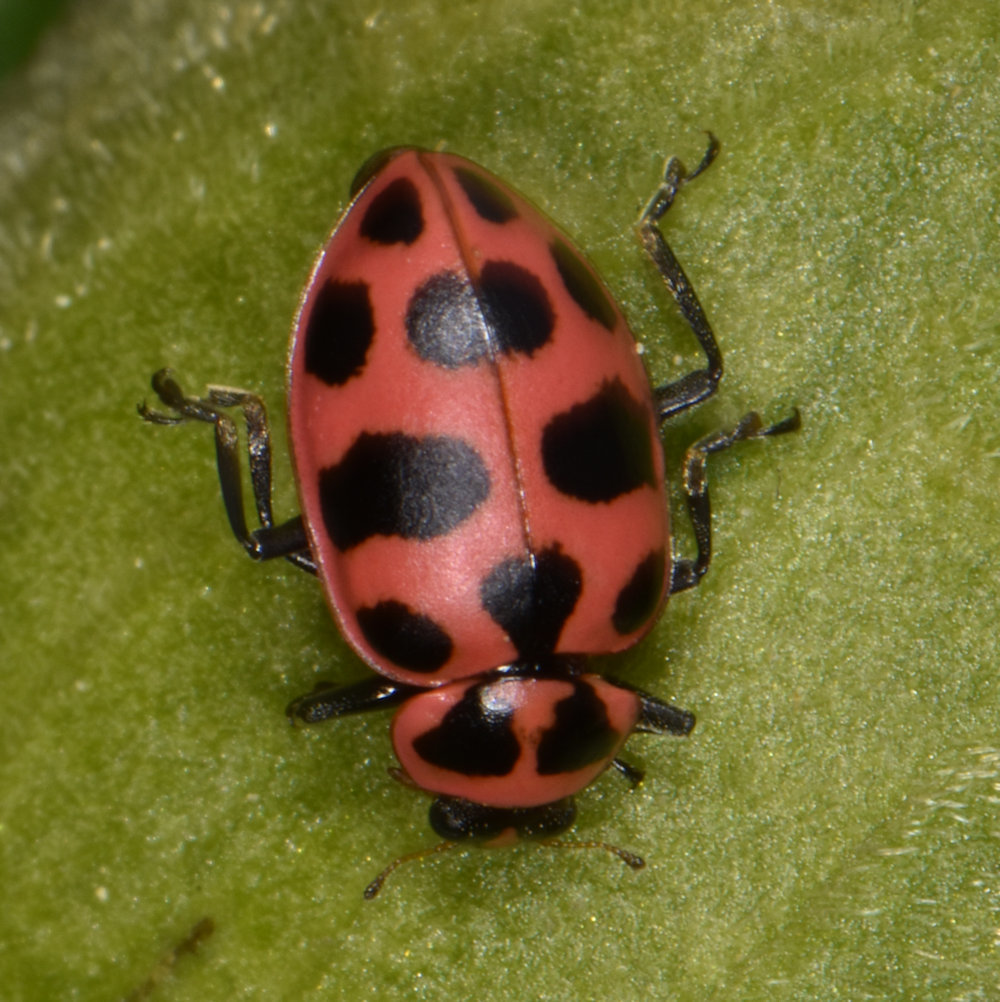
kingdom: Animalia
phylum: Arthropoda
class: Insecta
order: Coleoptera
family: Coccinellidae
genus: Coleomegilla
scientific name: Coleomegilla maculata
